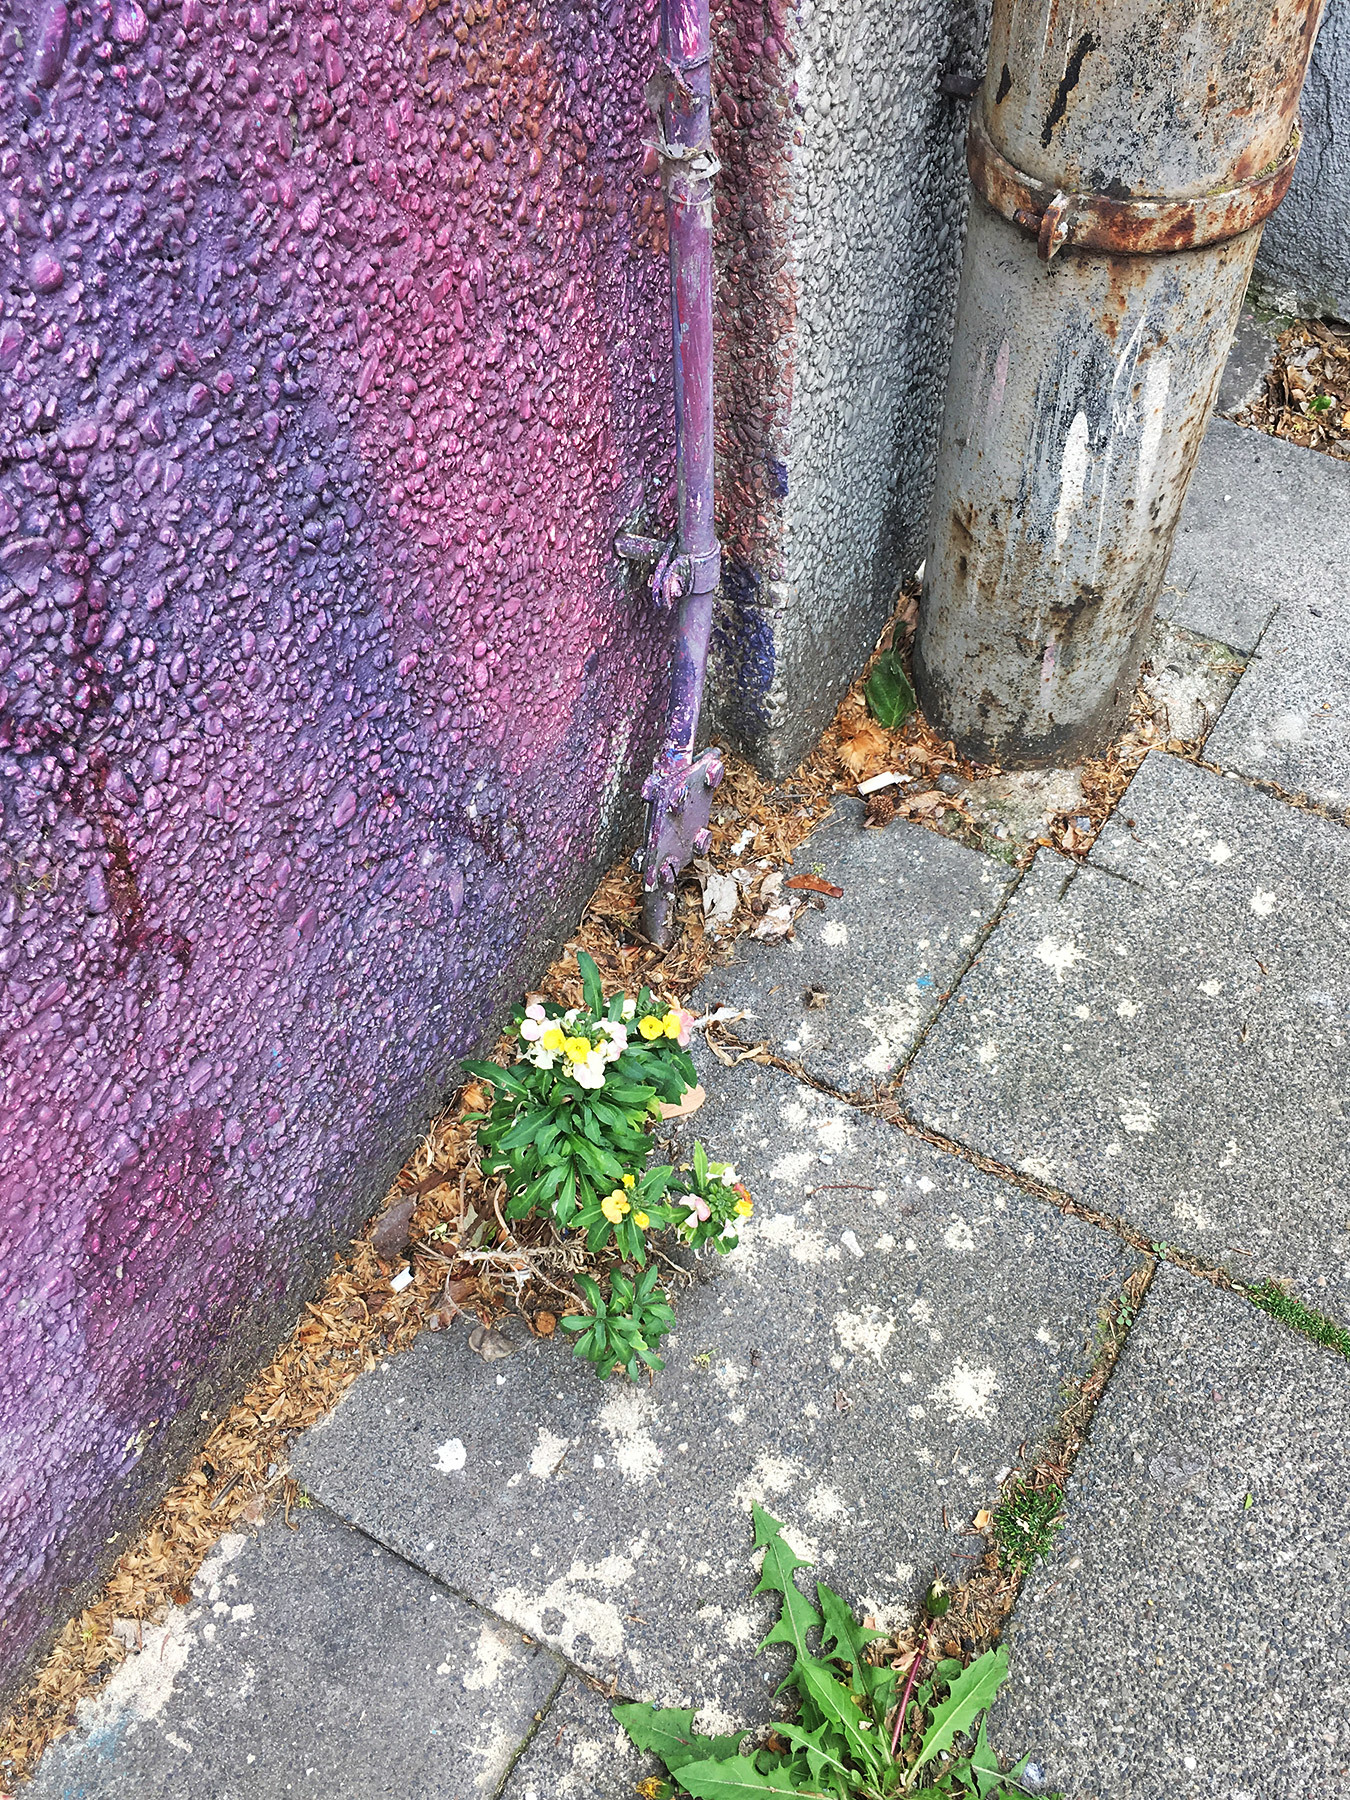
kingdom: Plantae
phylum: Tracheophyta
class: Magnoliopsida
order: Brassicales
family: Brassicaceae
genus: Erysimum
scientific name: Erysimum cheiri
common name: Wallflower
